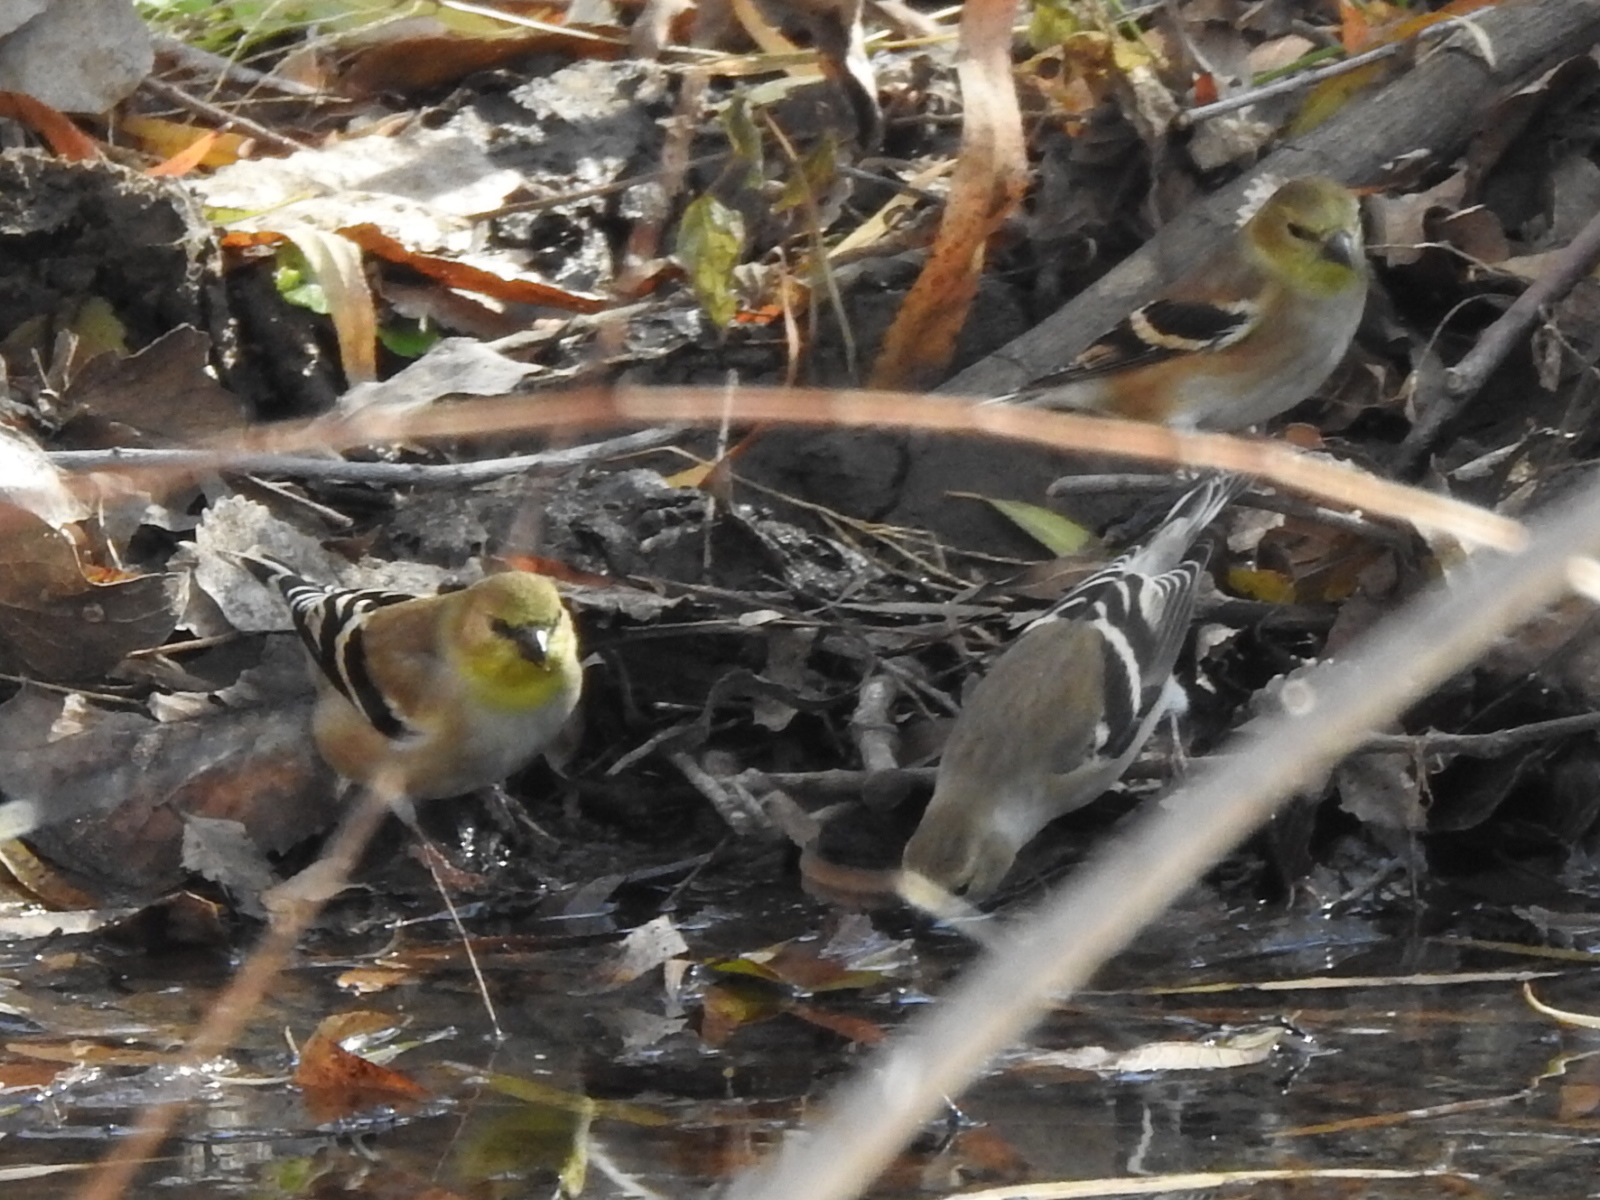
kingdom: Animalia
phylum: Chordata
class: Aves
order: Passeriformes
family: Fringillidae
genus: Spinus
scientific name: Spinus tristis
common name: American goldfinch
